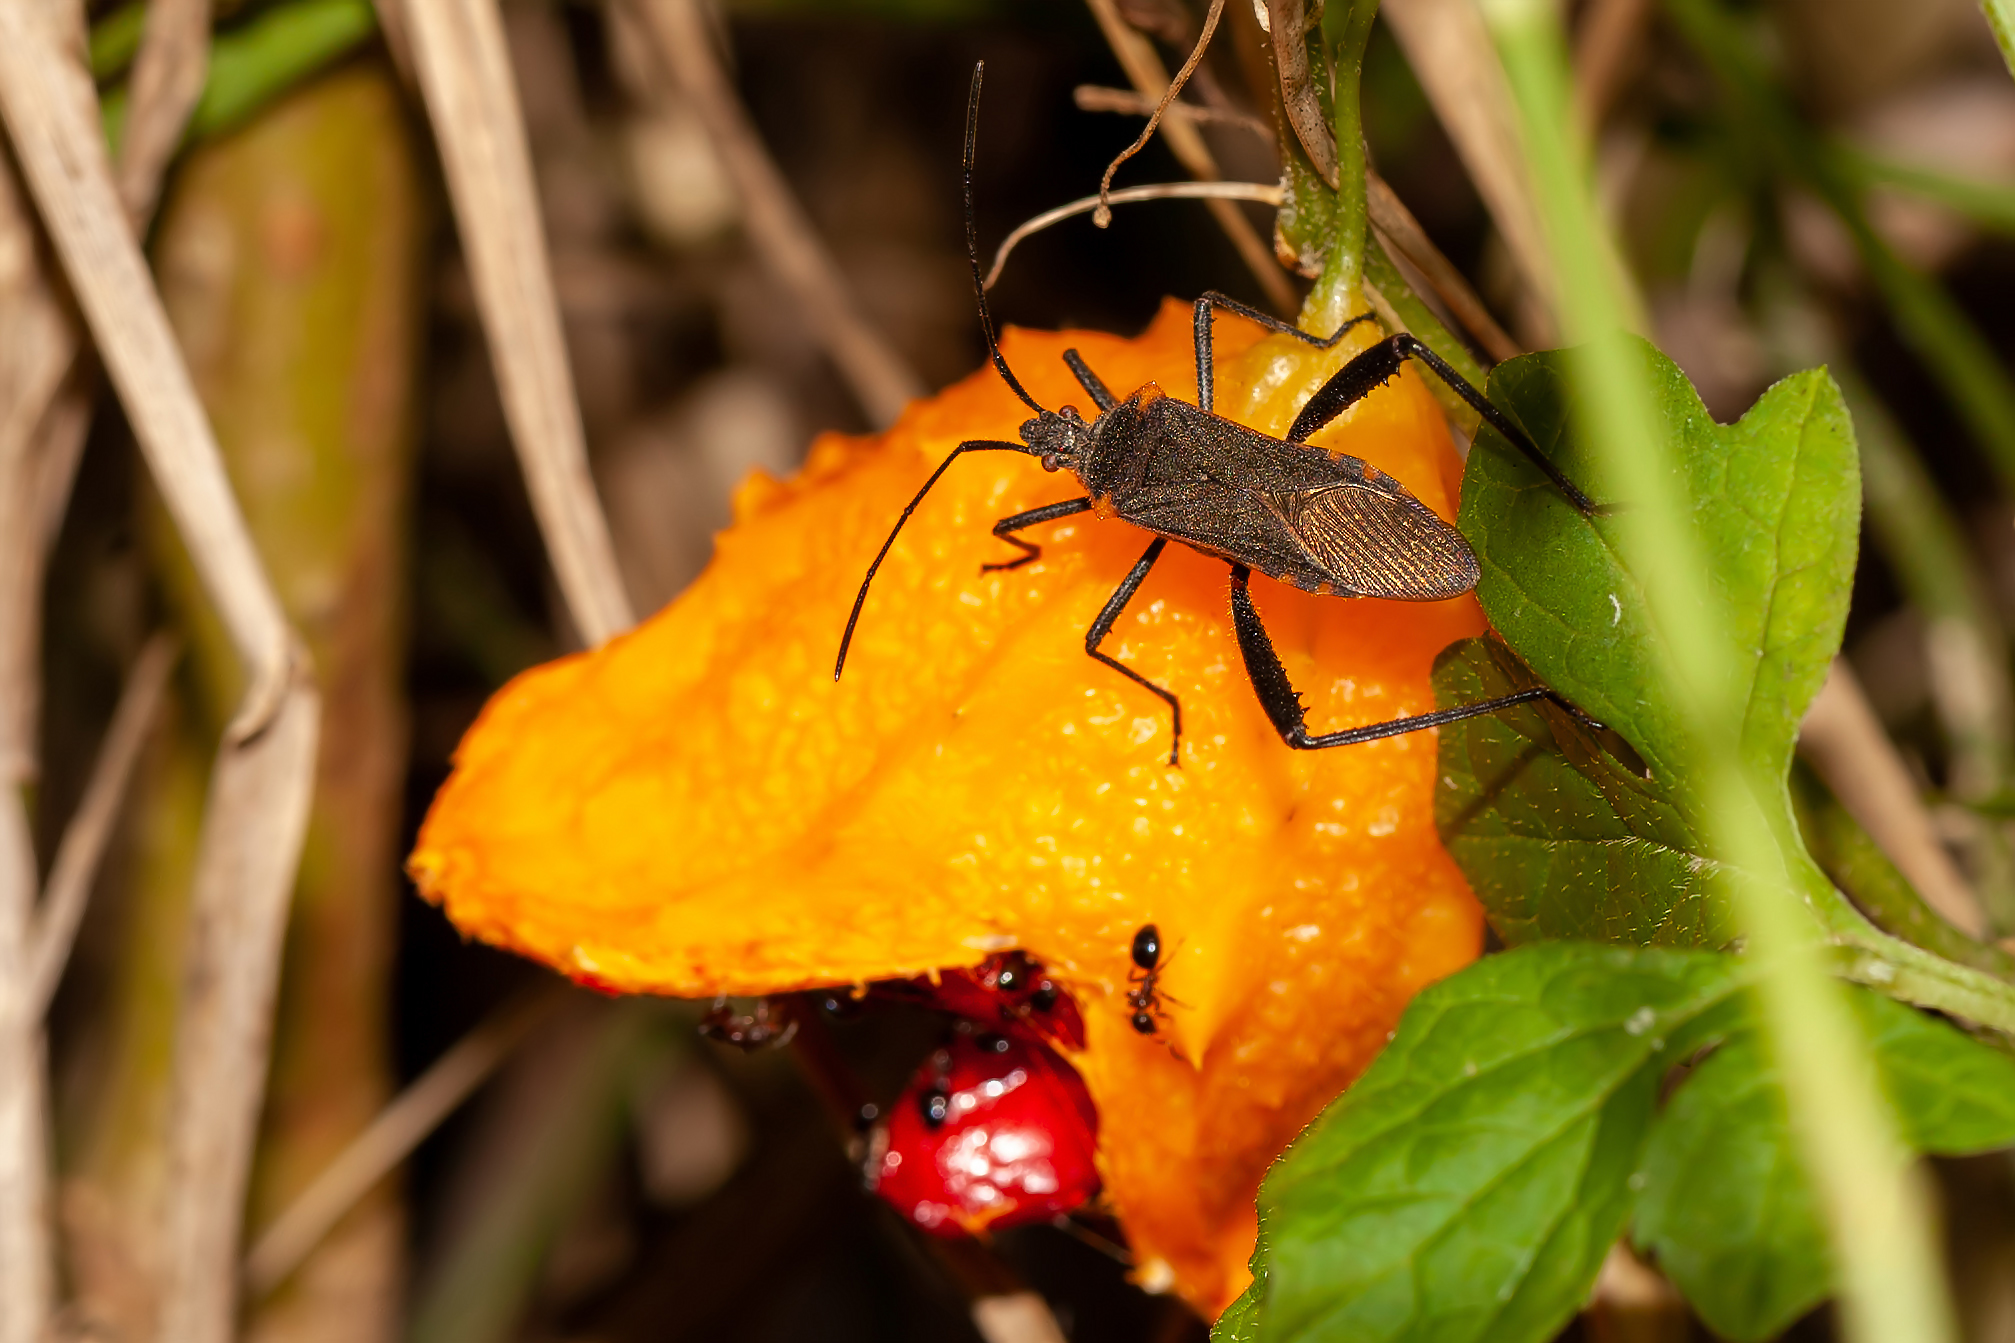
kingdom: Animalia
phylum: Arthropoda
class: Insecta
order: Hemiptera
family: Coreidae
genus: Phthiacnemia
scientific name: Phthiacnemia picta
